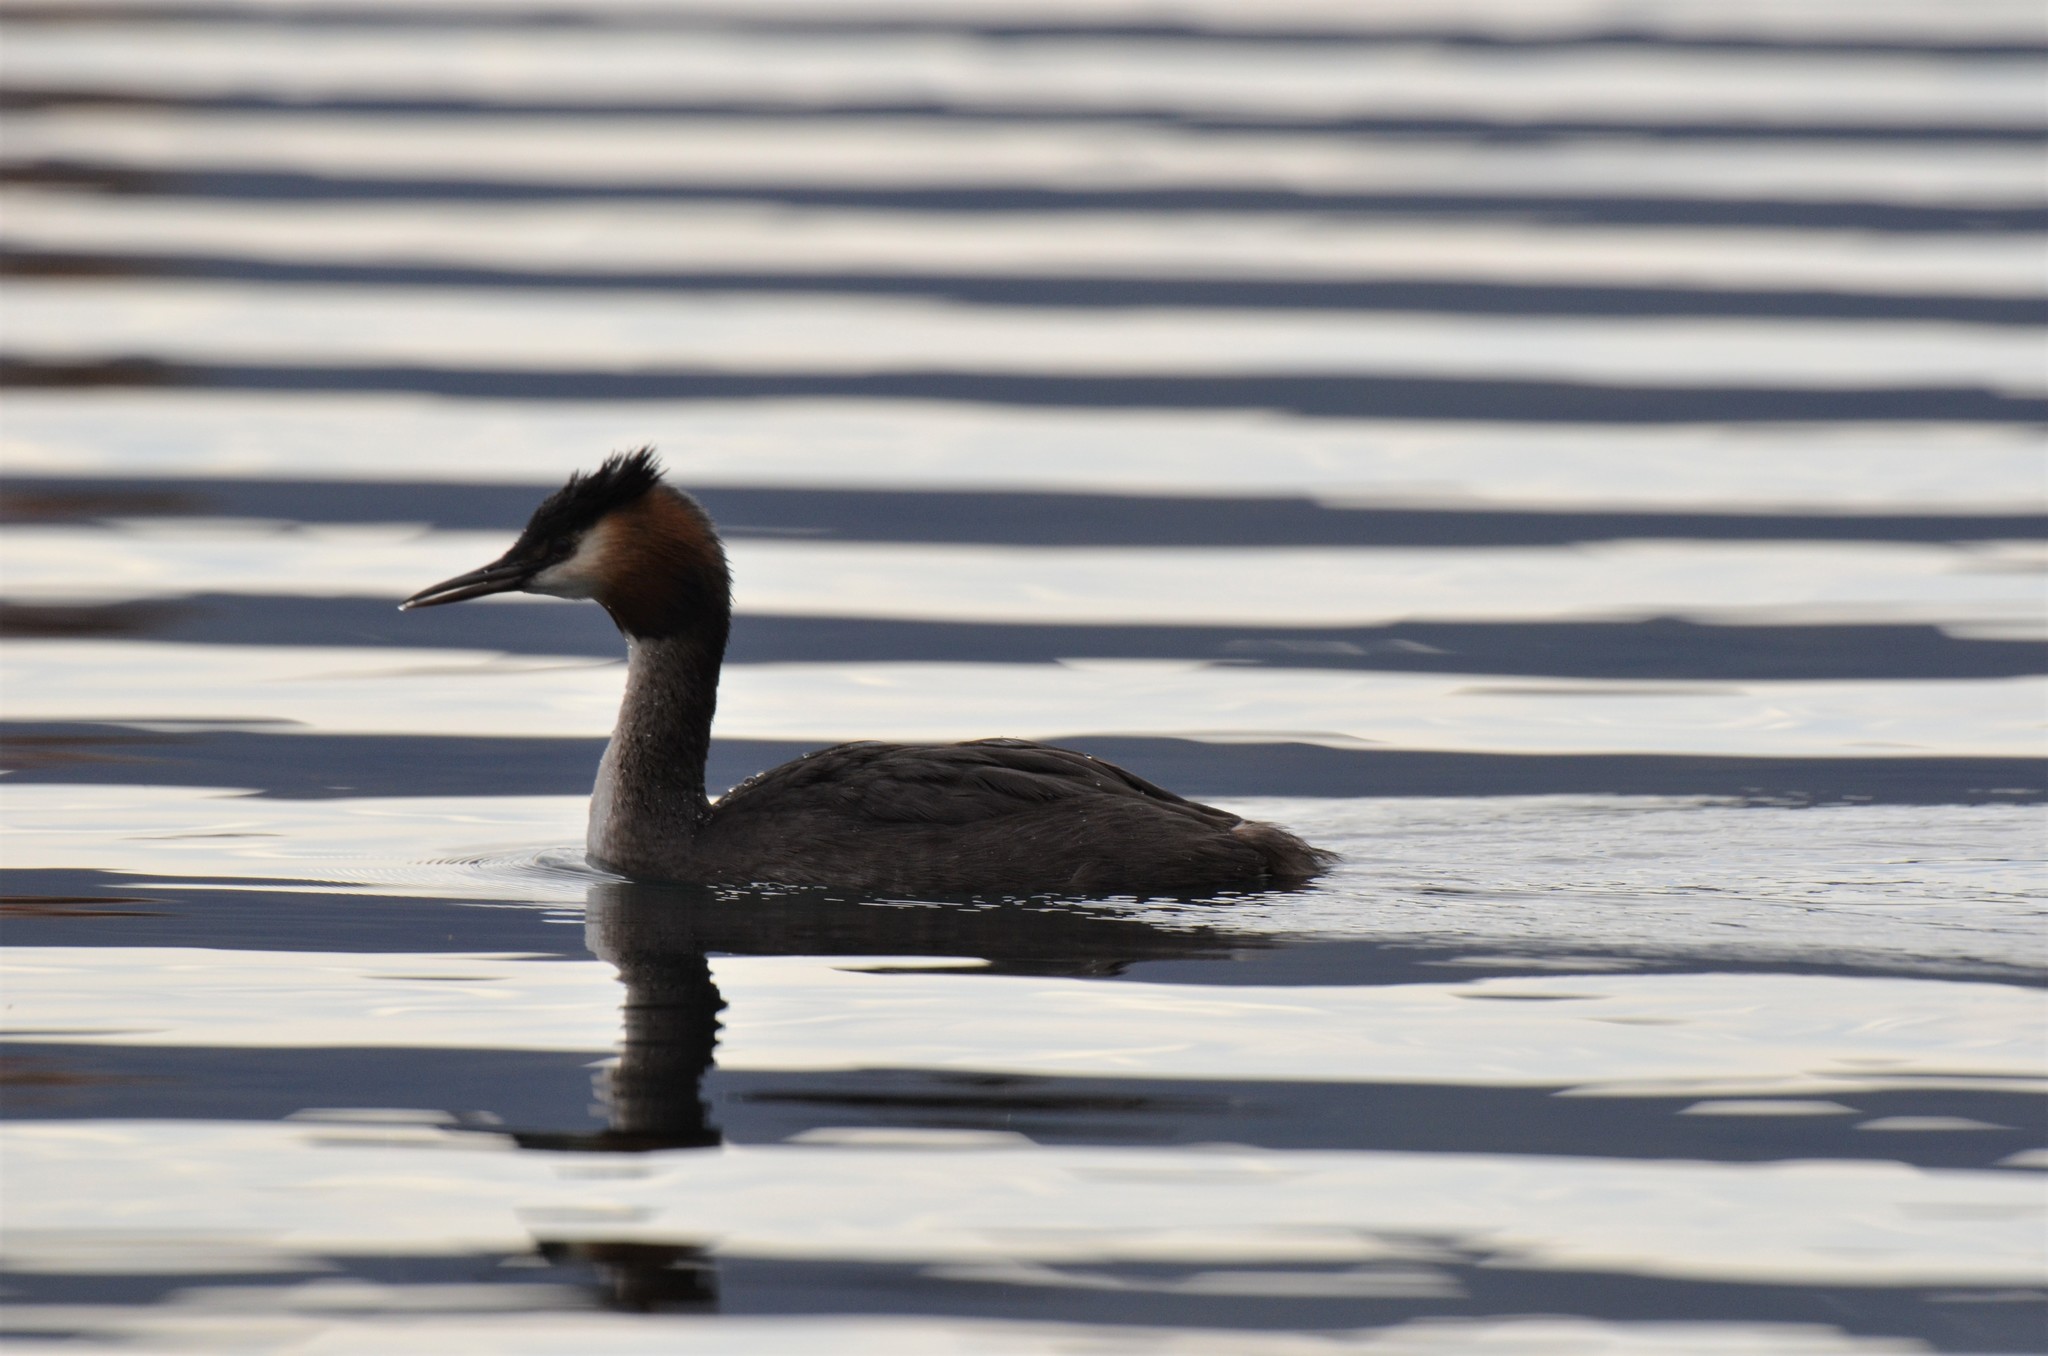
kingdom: Animalia
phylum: Chordata
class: Aves
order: Podicipediformes
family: Podicipedidae
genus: Podiceps
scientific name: Podiceps cristatus
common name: Great crested grebe
